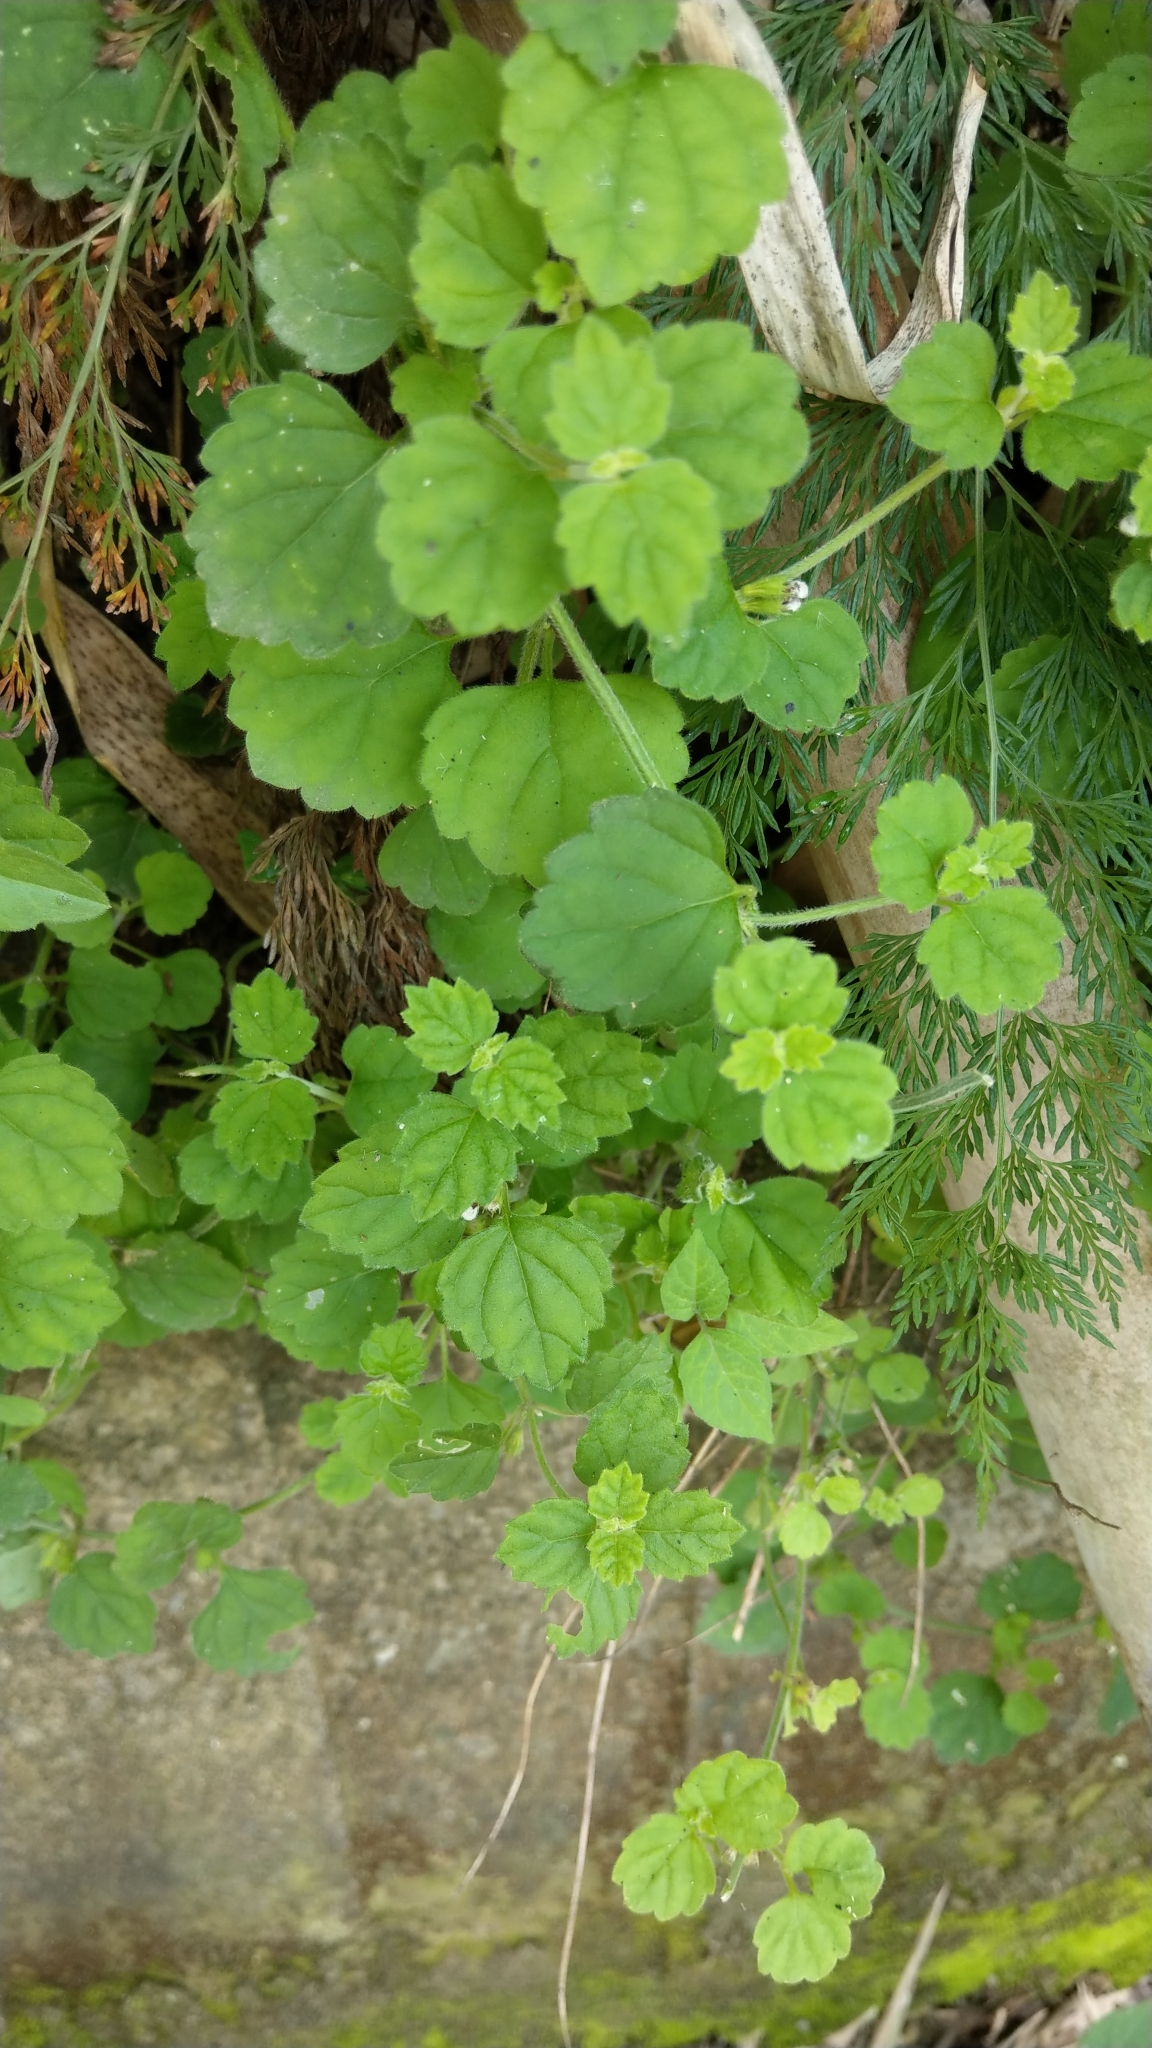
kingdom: Plantae
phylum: Tracheophyta
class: Magnoliopsida
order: Lamiales
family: Lamiaceae
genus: Leucas
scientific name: Leucas chinensis
